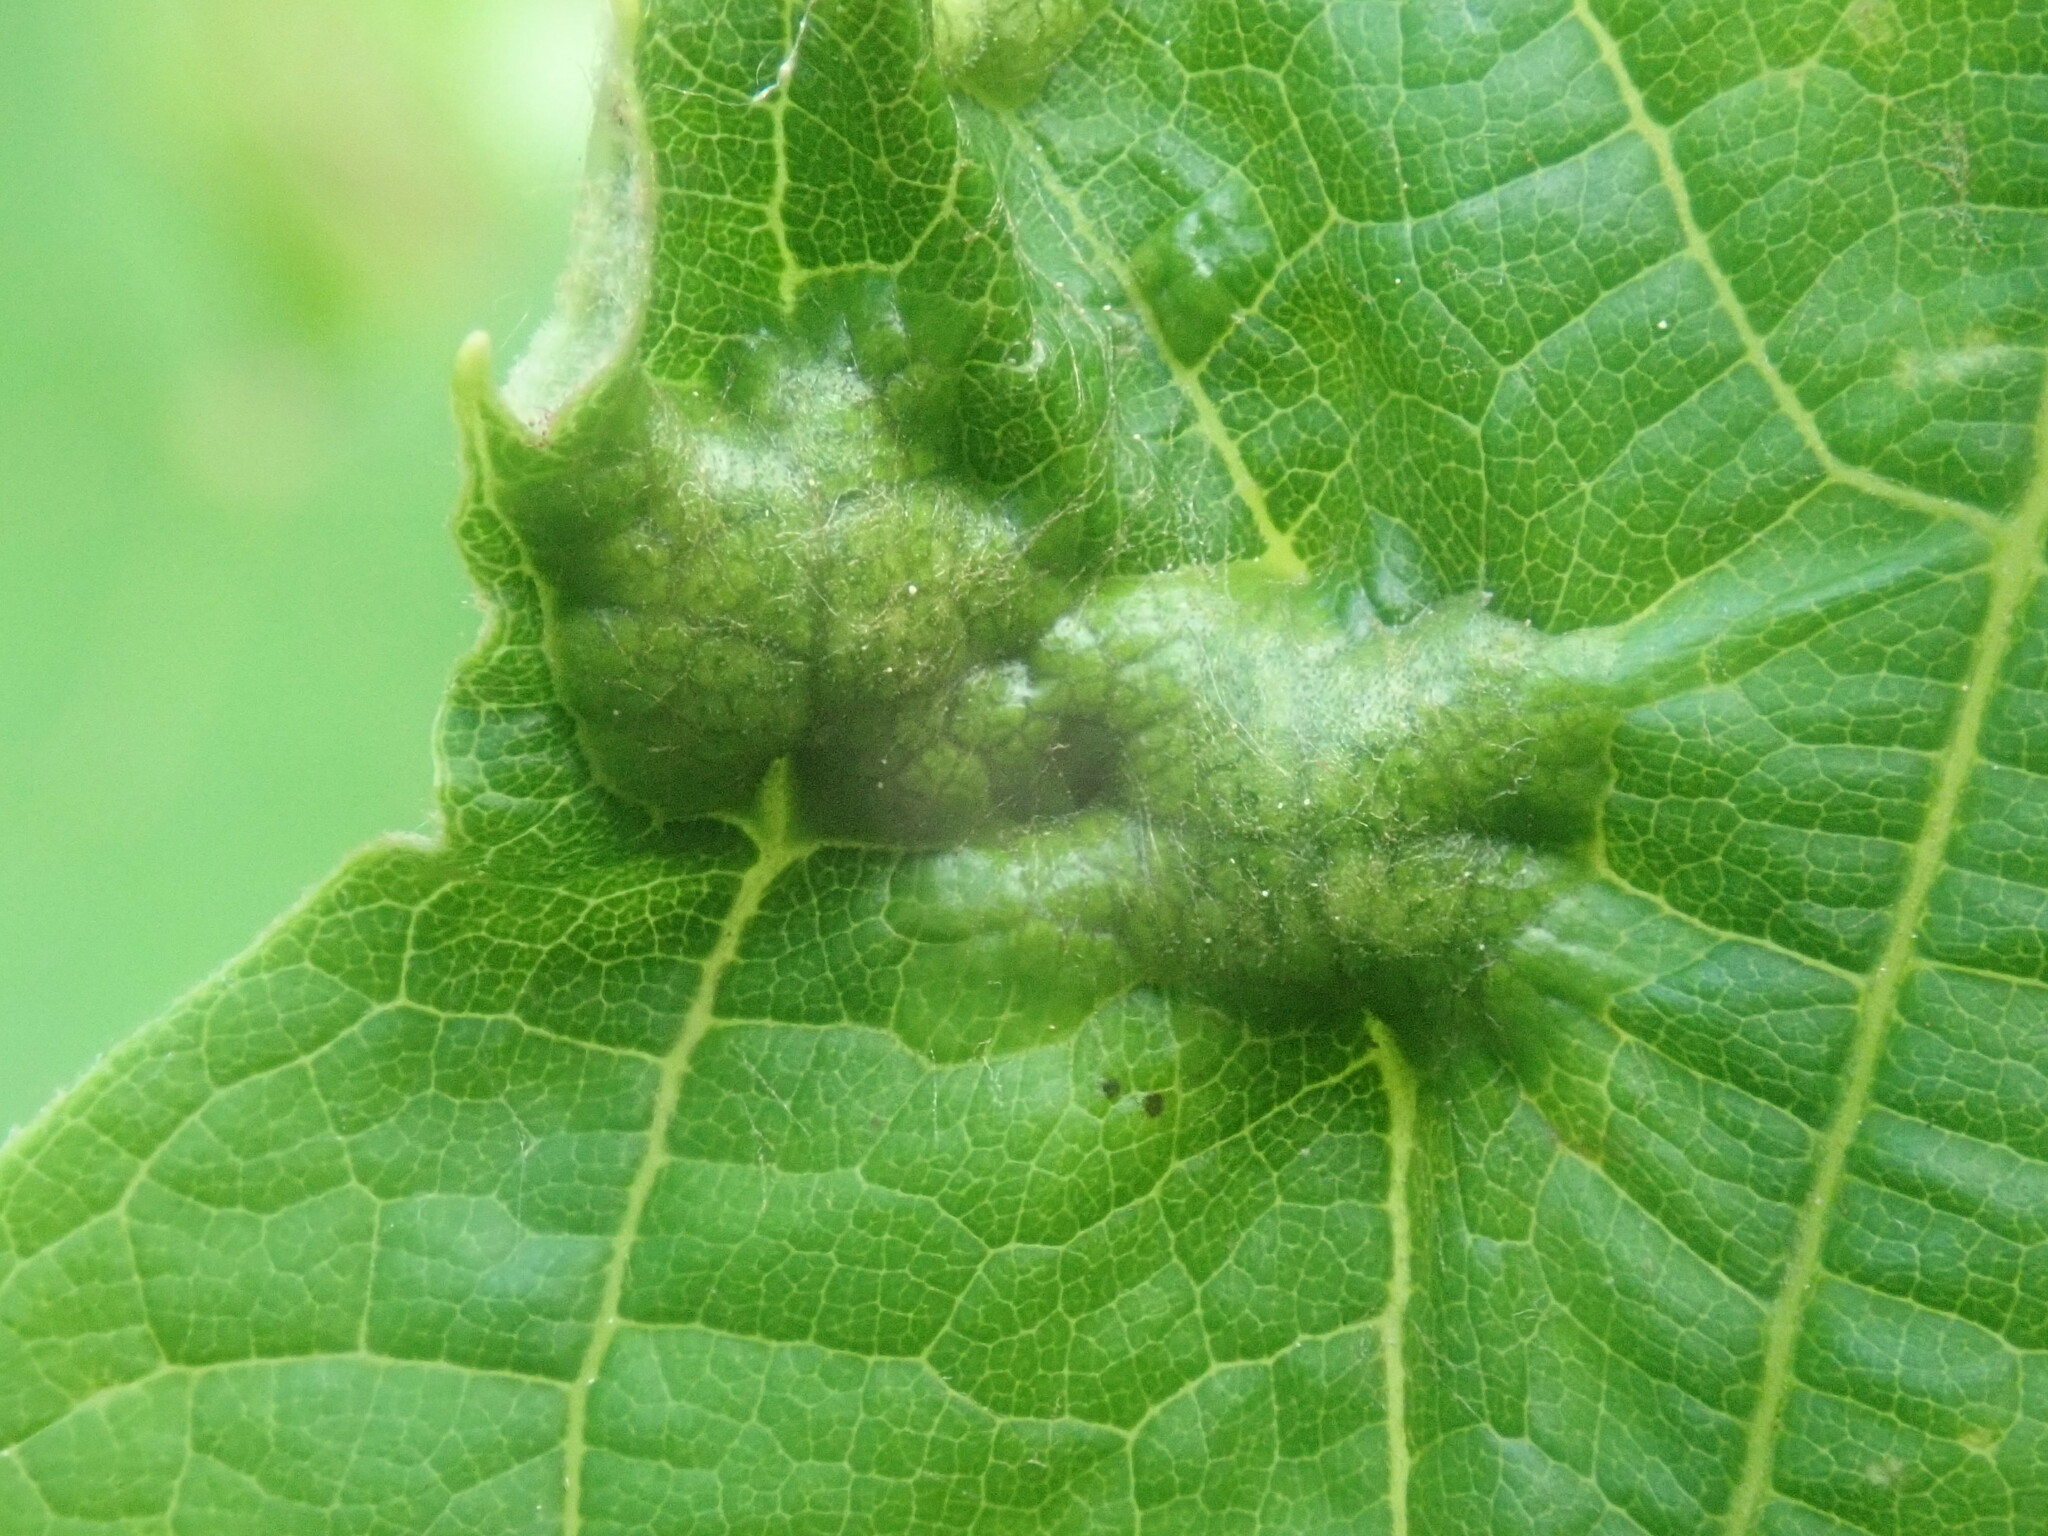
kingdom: Animalia
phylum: Arthropoda
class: Insecta
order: Lepidoptera
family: Heliozelidae
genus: Heliozela
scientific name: Heliozela aesella
